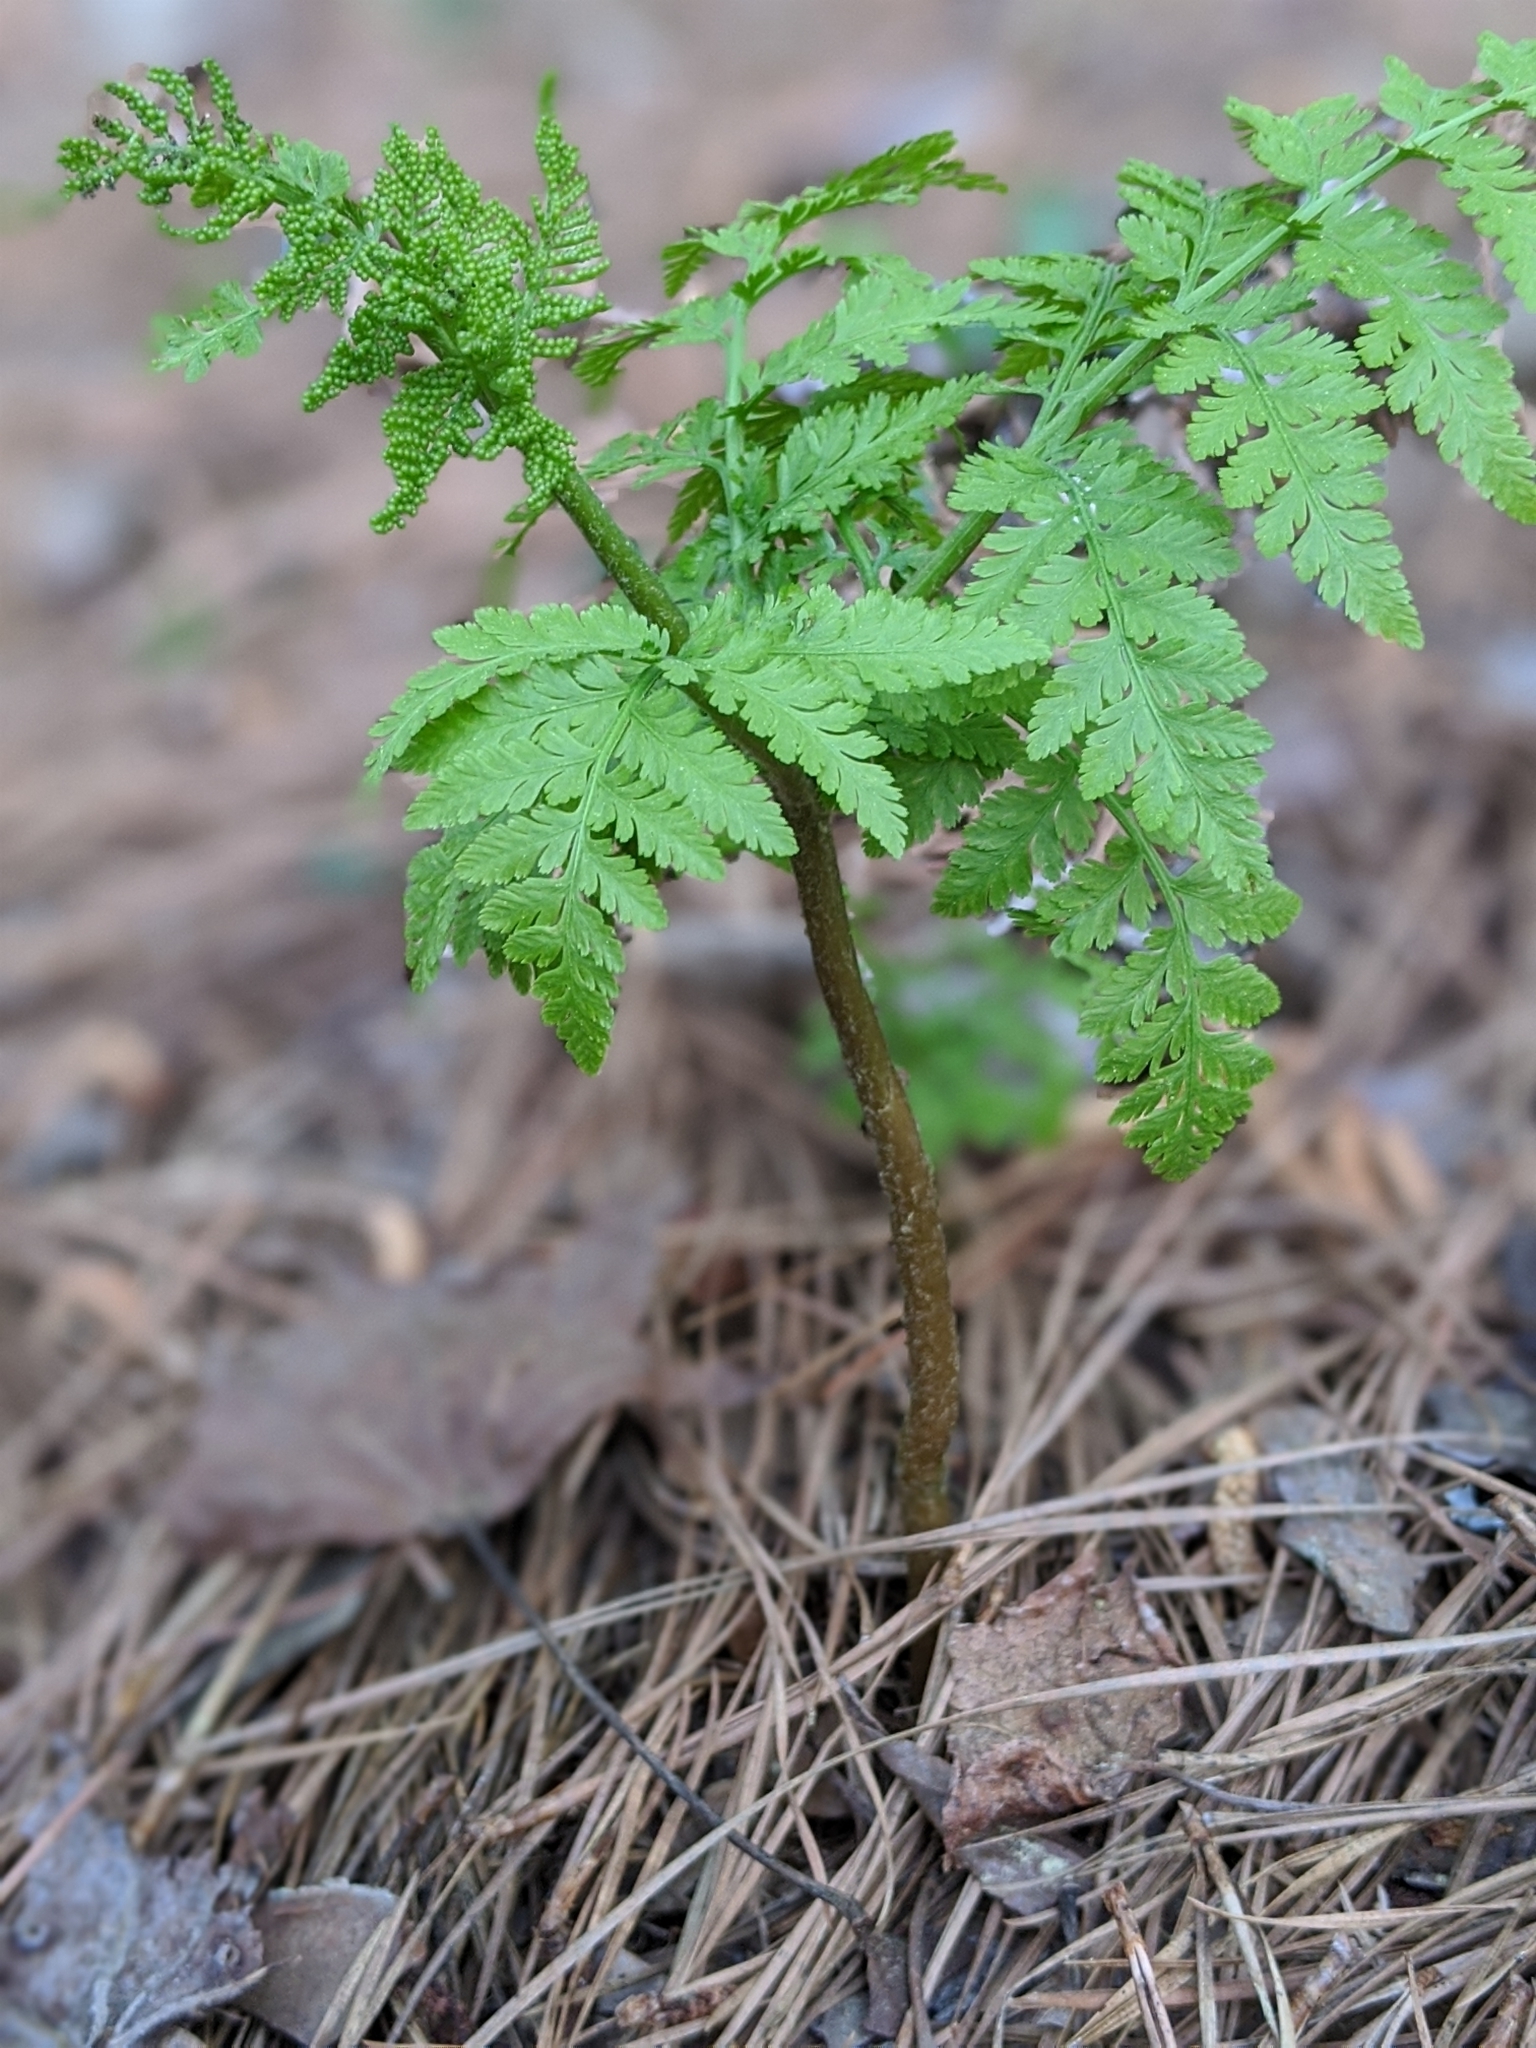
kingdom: Plantae
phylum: Tracheophyta
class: Polypodiopsida
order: Ophioglossales
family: Ophioglossaceae
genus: Botrypus
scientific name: Botrypus virginianus
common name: Common grapefern
